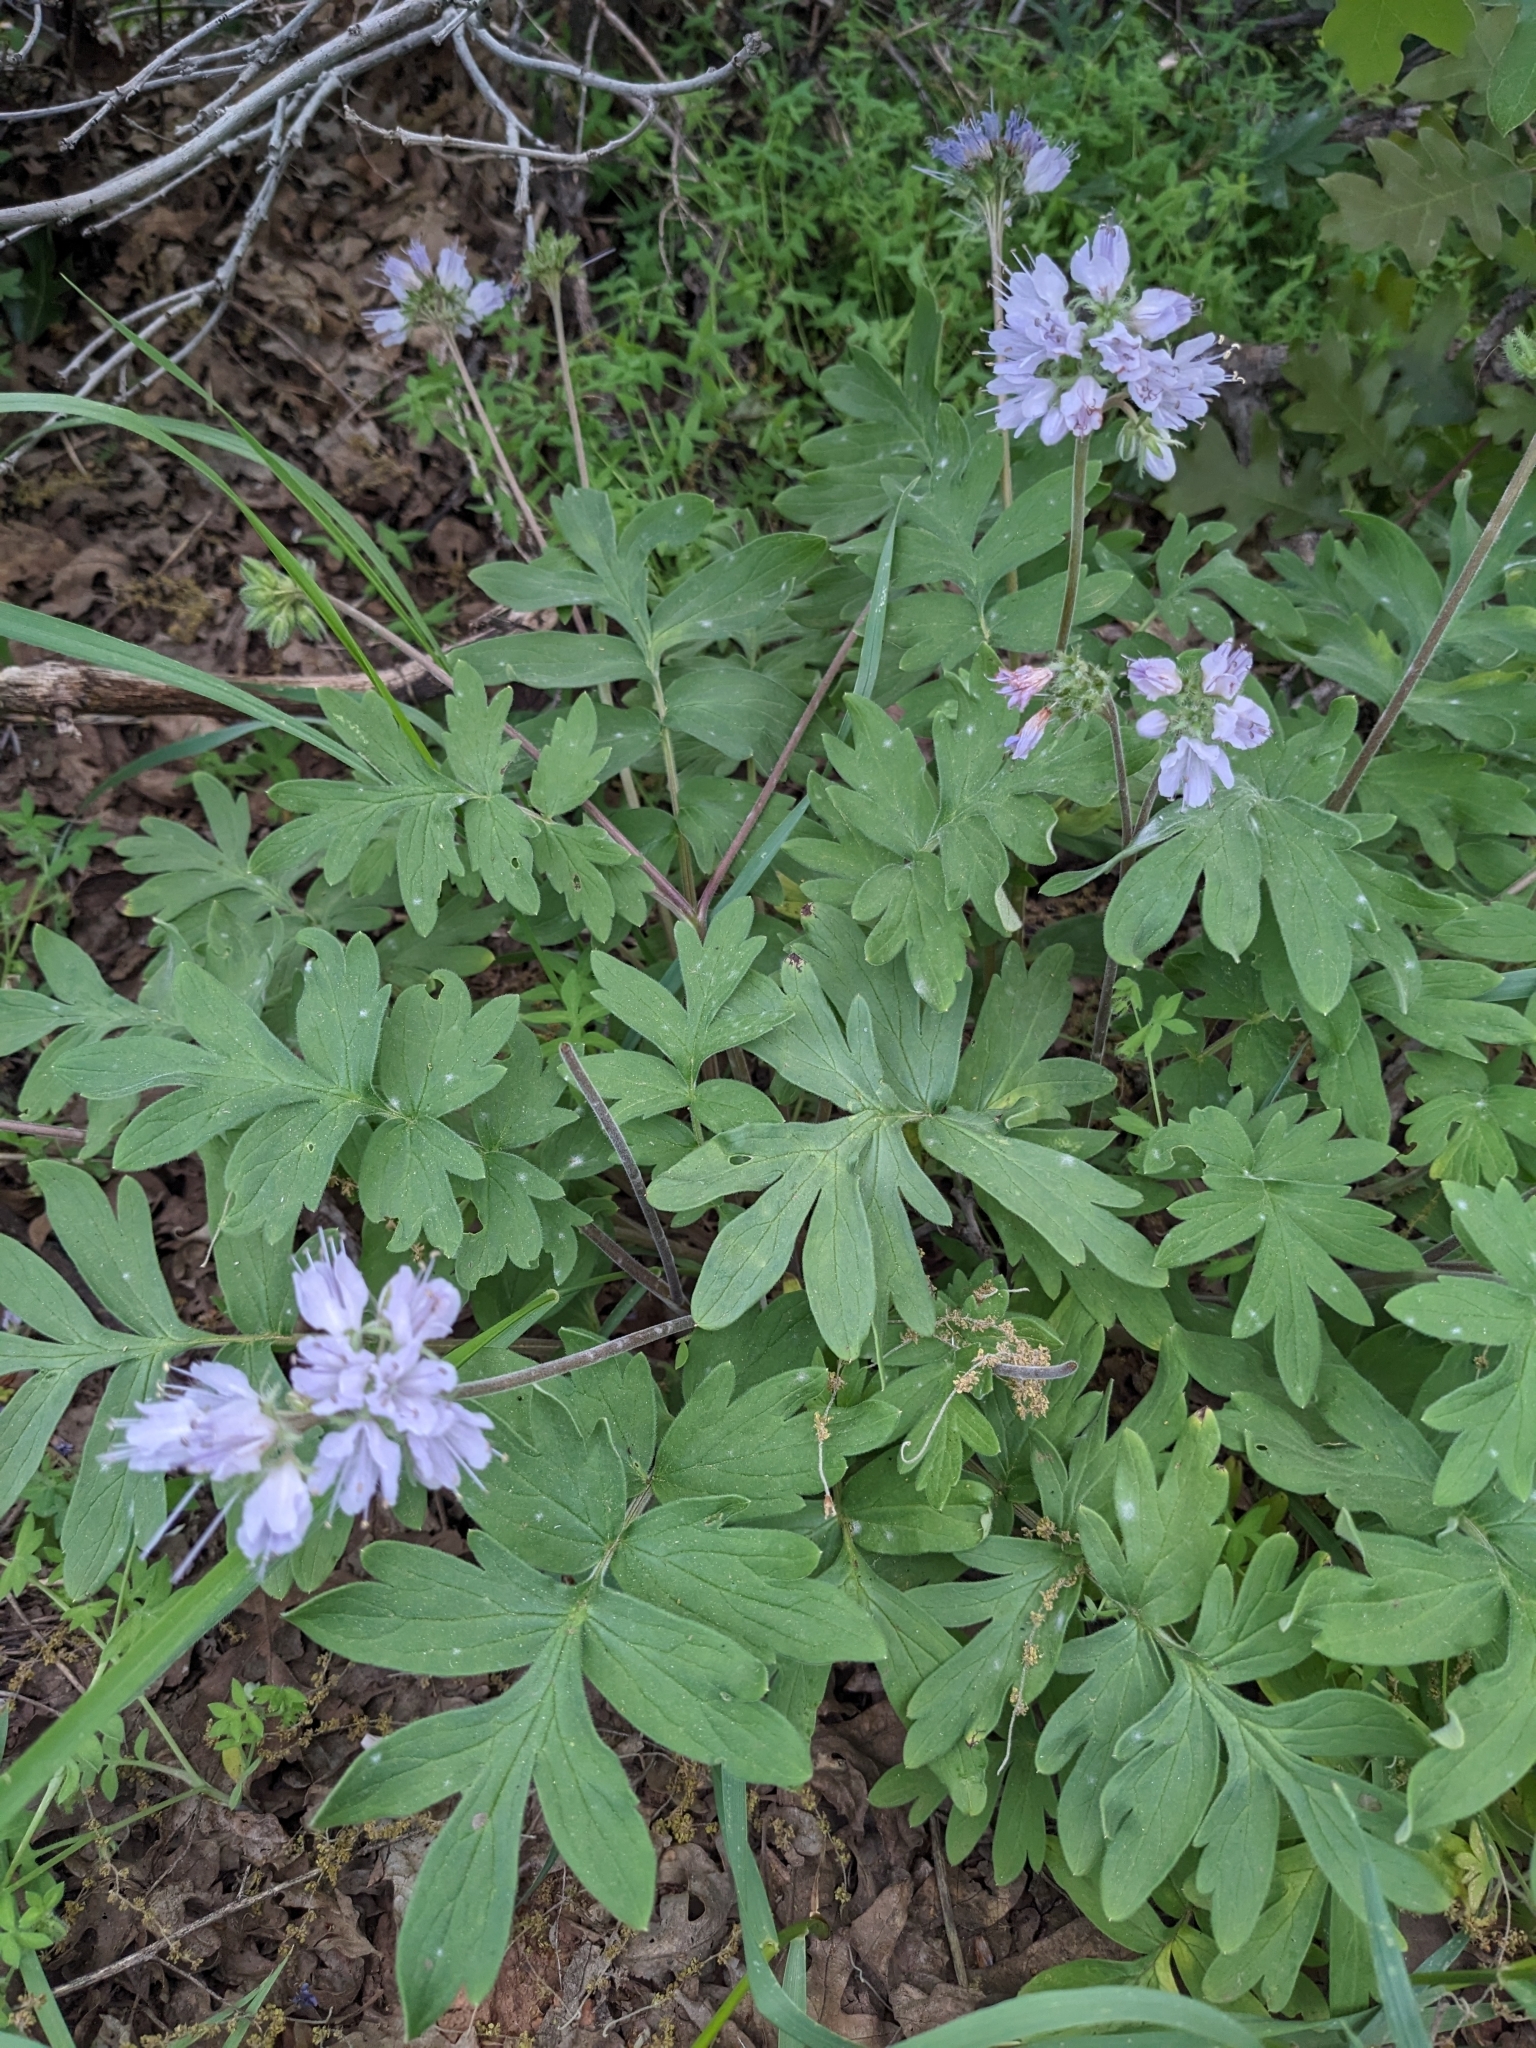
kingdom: Plantae
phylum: Tracheophyta
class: Magnoliopsida
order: Boraginales
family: Hydrophyllaceae
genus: Hydrophyllum
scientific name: Hydrophyllum occidentale
